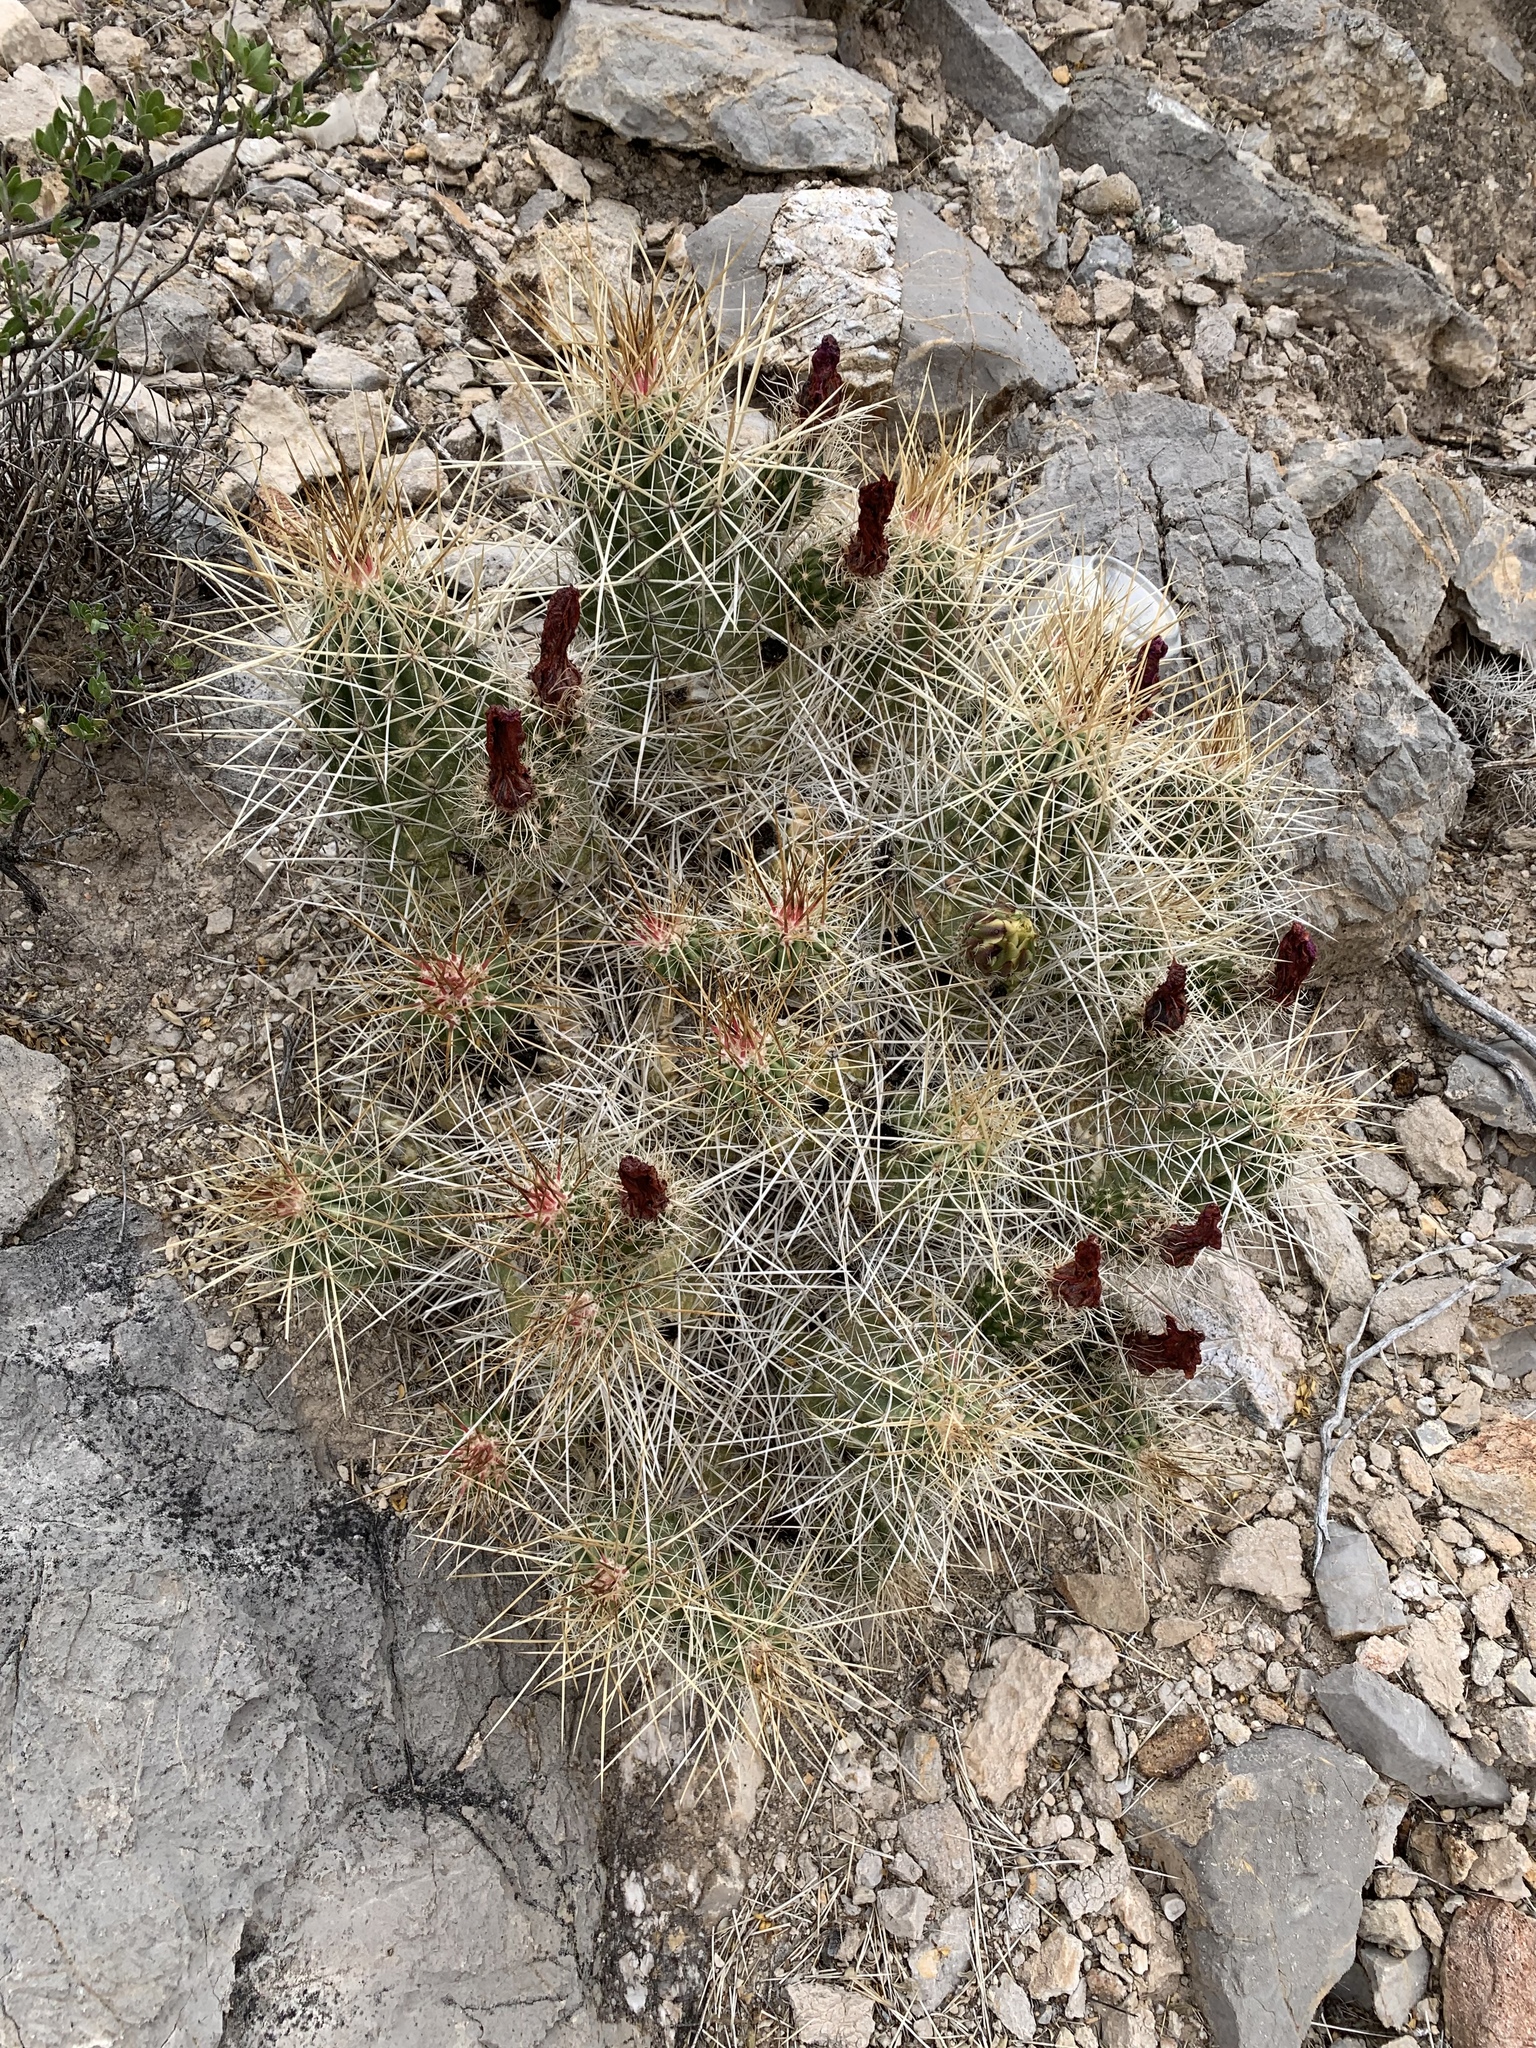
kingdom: Plantae
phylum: Tracheophyta
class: Magnoliopsida
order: Caryophyllales
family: Cactaceae
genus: Echinocereus
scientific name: Echinocereus stramineus
